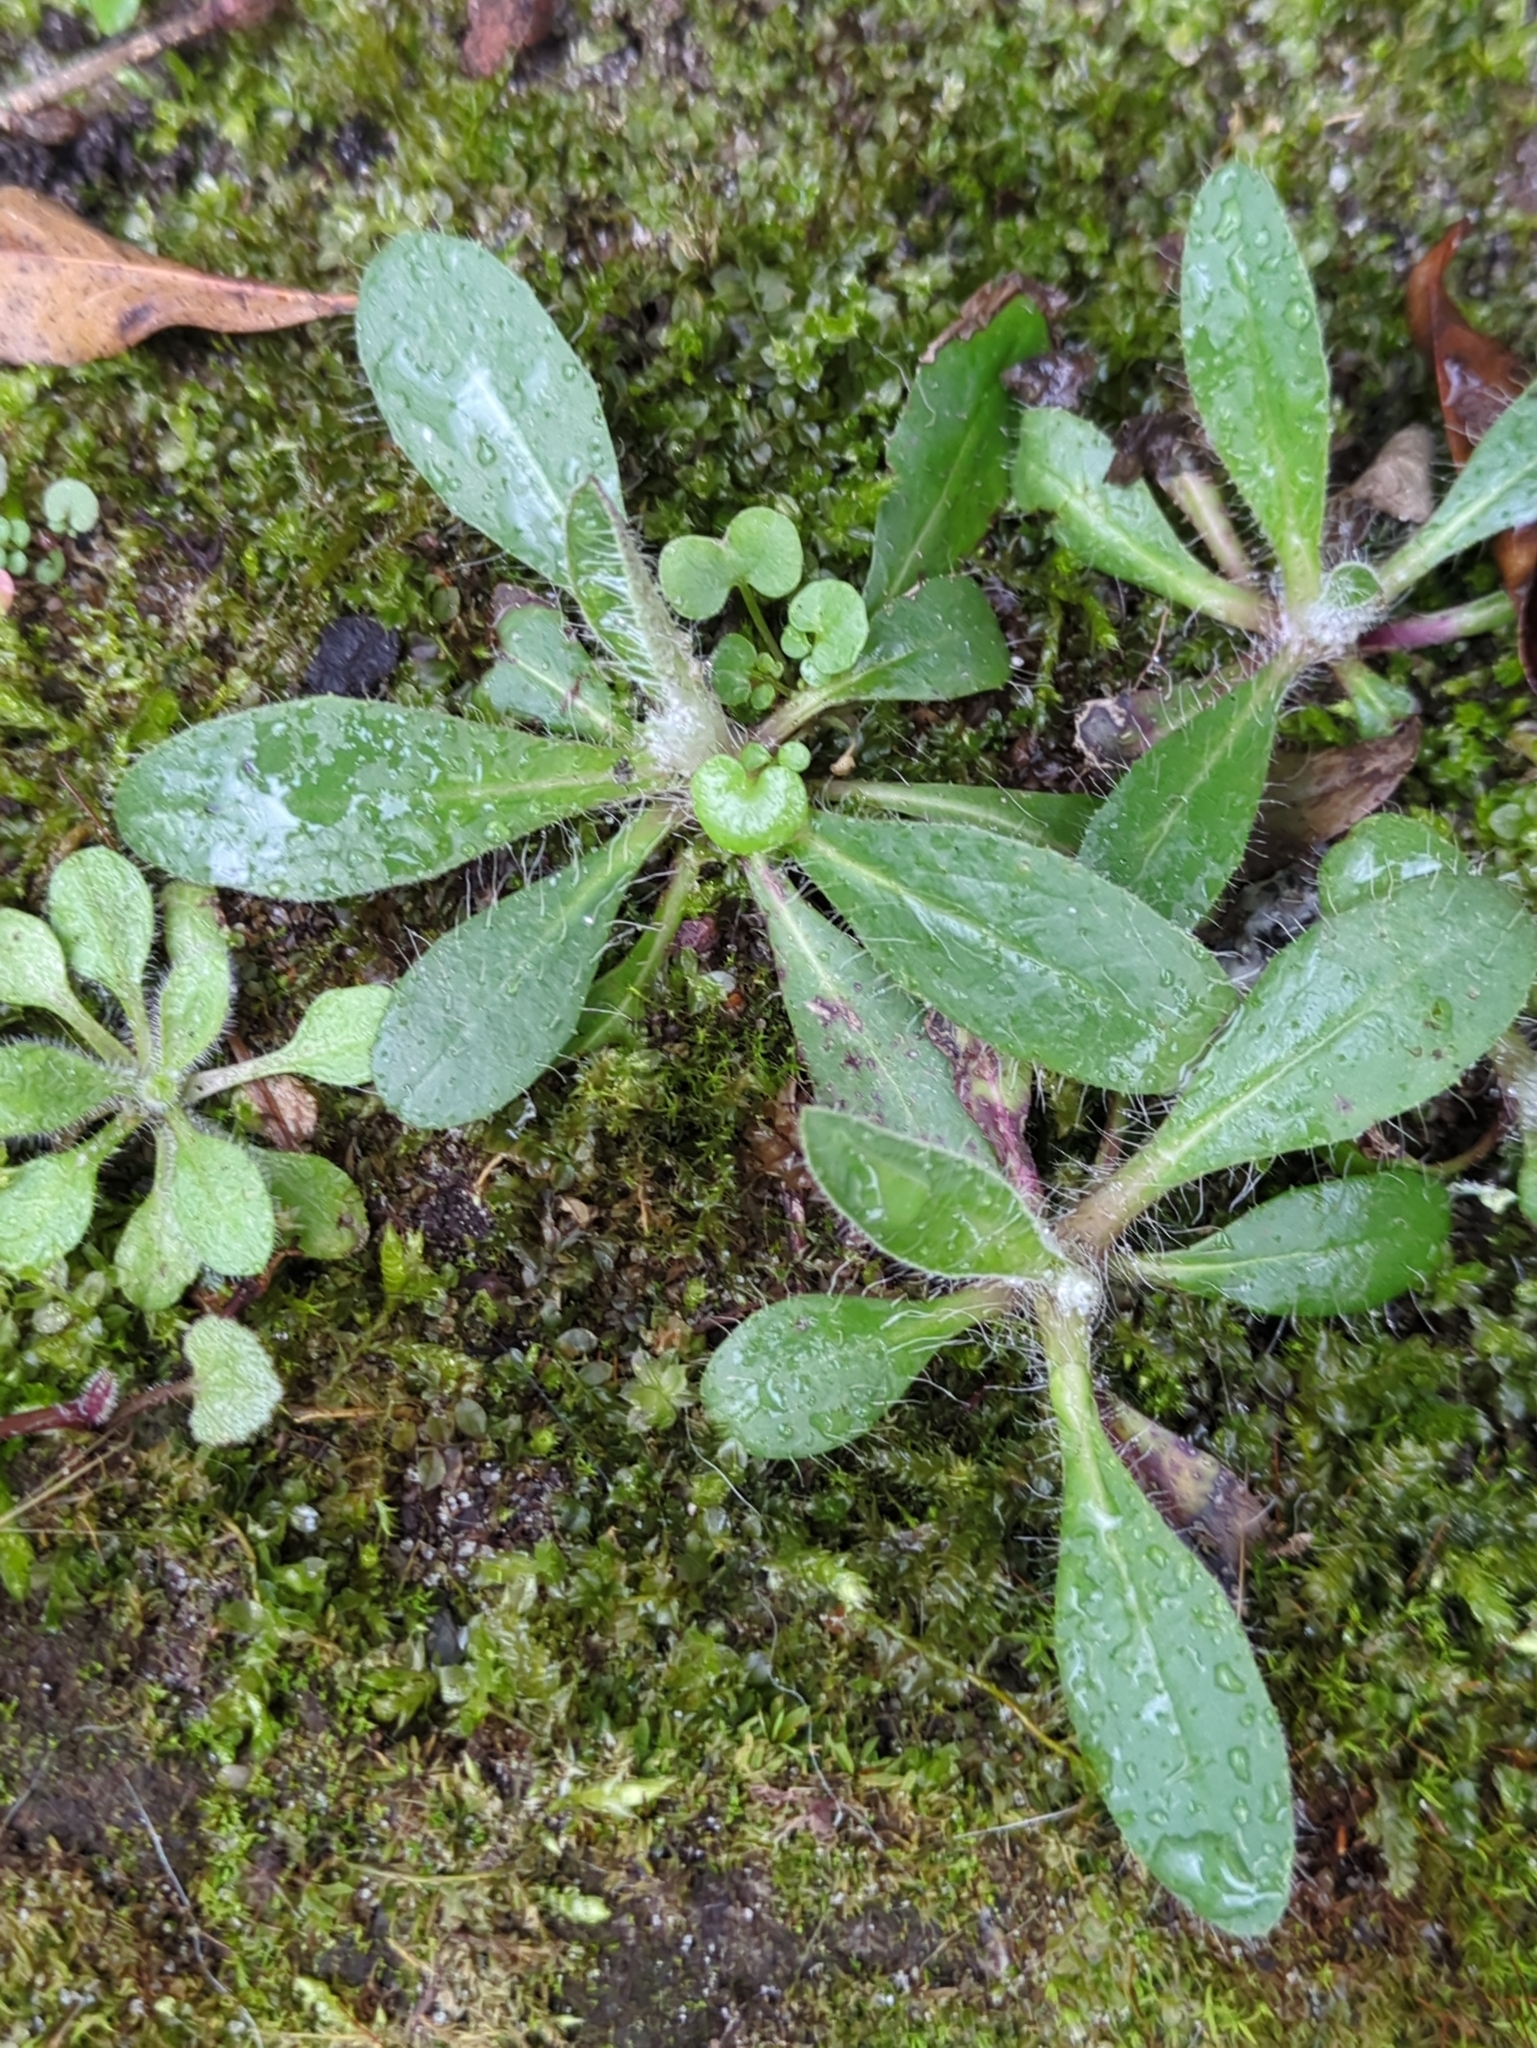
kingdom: Plantae
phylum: Tracheophyta
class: Magnoliopsida
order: Asterales
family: Asteraceae
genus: Pilosella
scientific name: Pilosella officinarum
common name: Mouse-ear hawkweed
